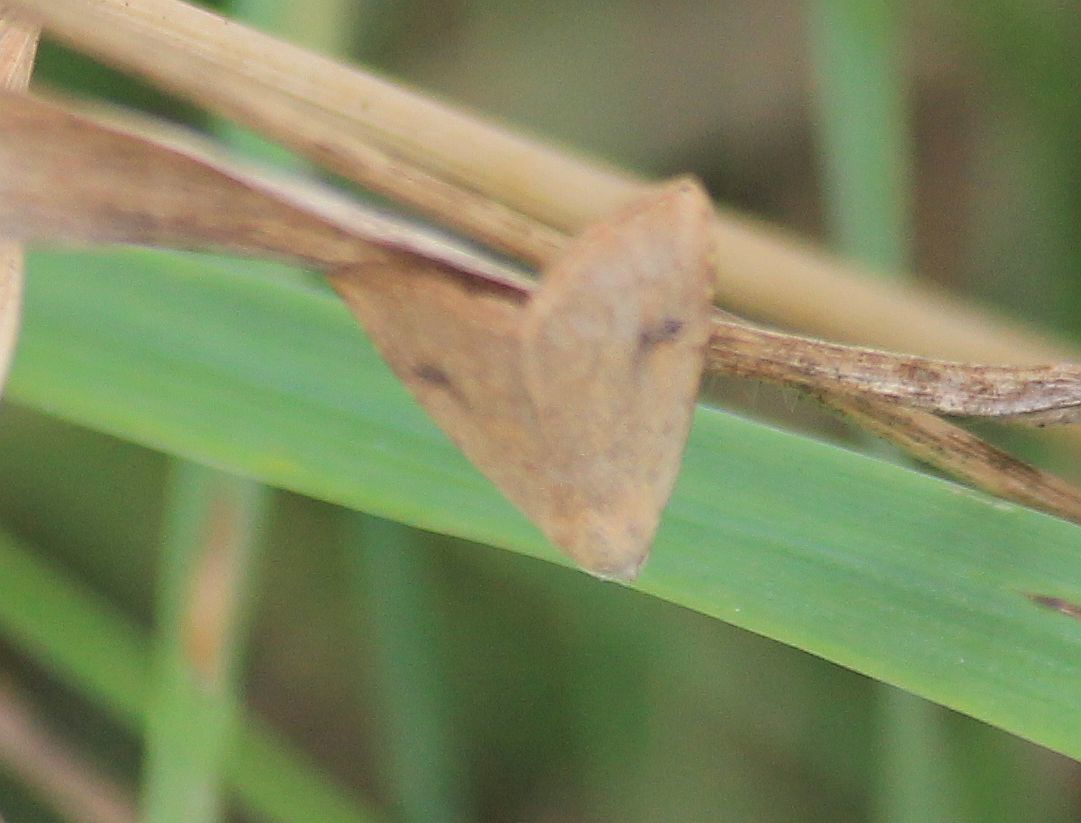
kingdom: Animalia
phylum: Arthropoda
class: Insecta
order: Lepidoptera
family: Erebidae
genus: Rivula
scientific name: Rivula sericealis
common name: Straw dot
